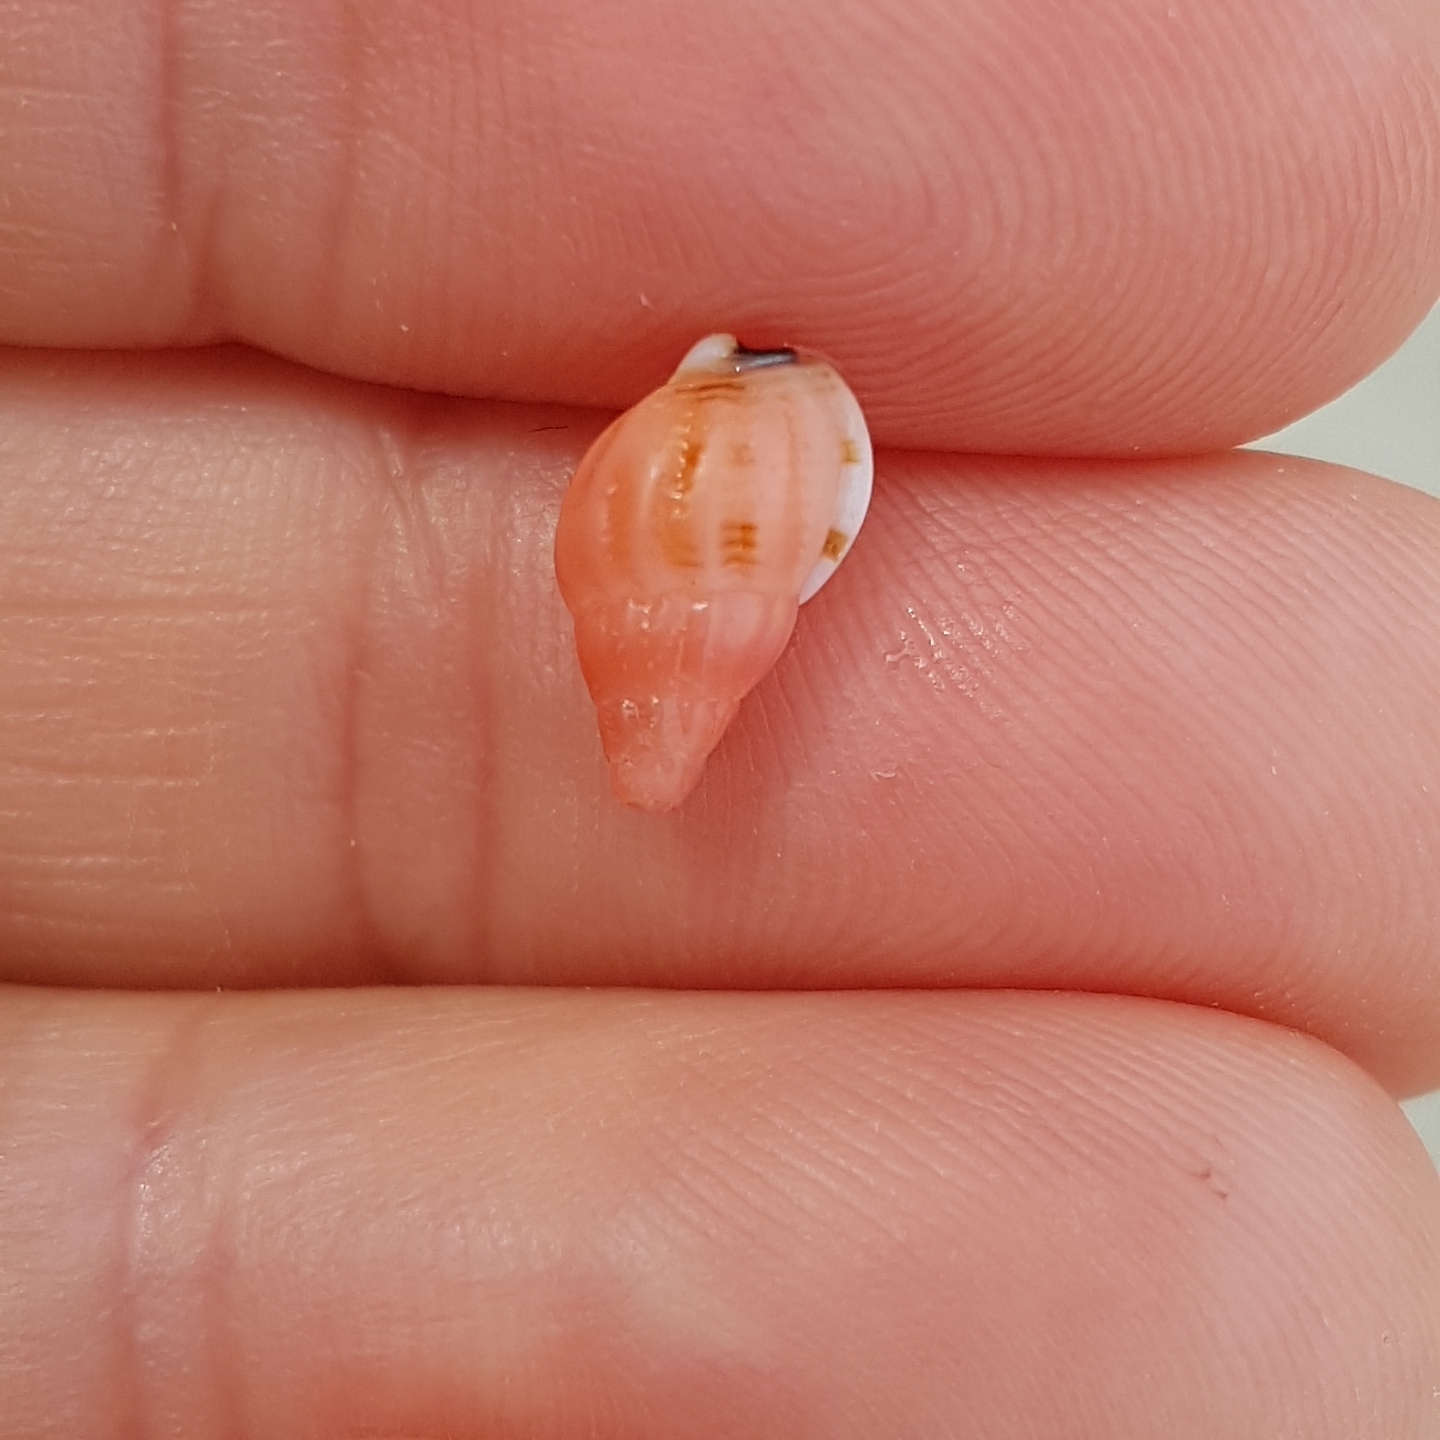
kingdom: Animalia
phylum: Mollusca
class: Gastropoda
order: Neogastropoda
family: Nassariidae
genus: Tritia
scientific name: Tritia incrassata
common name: Thick-lipped dog whelk
